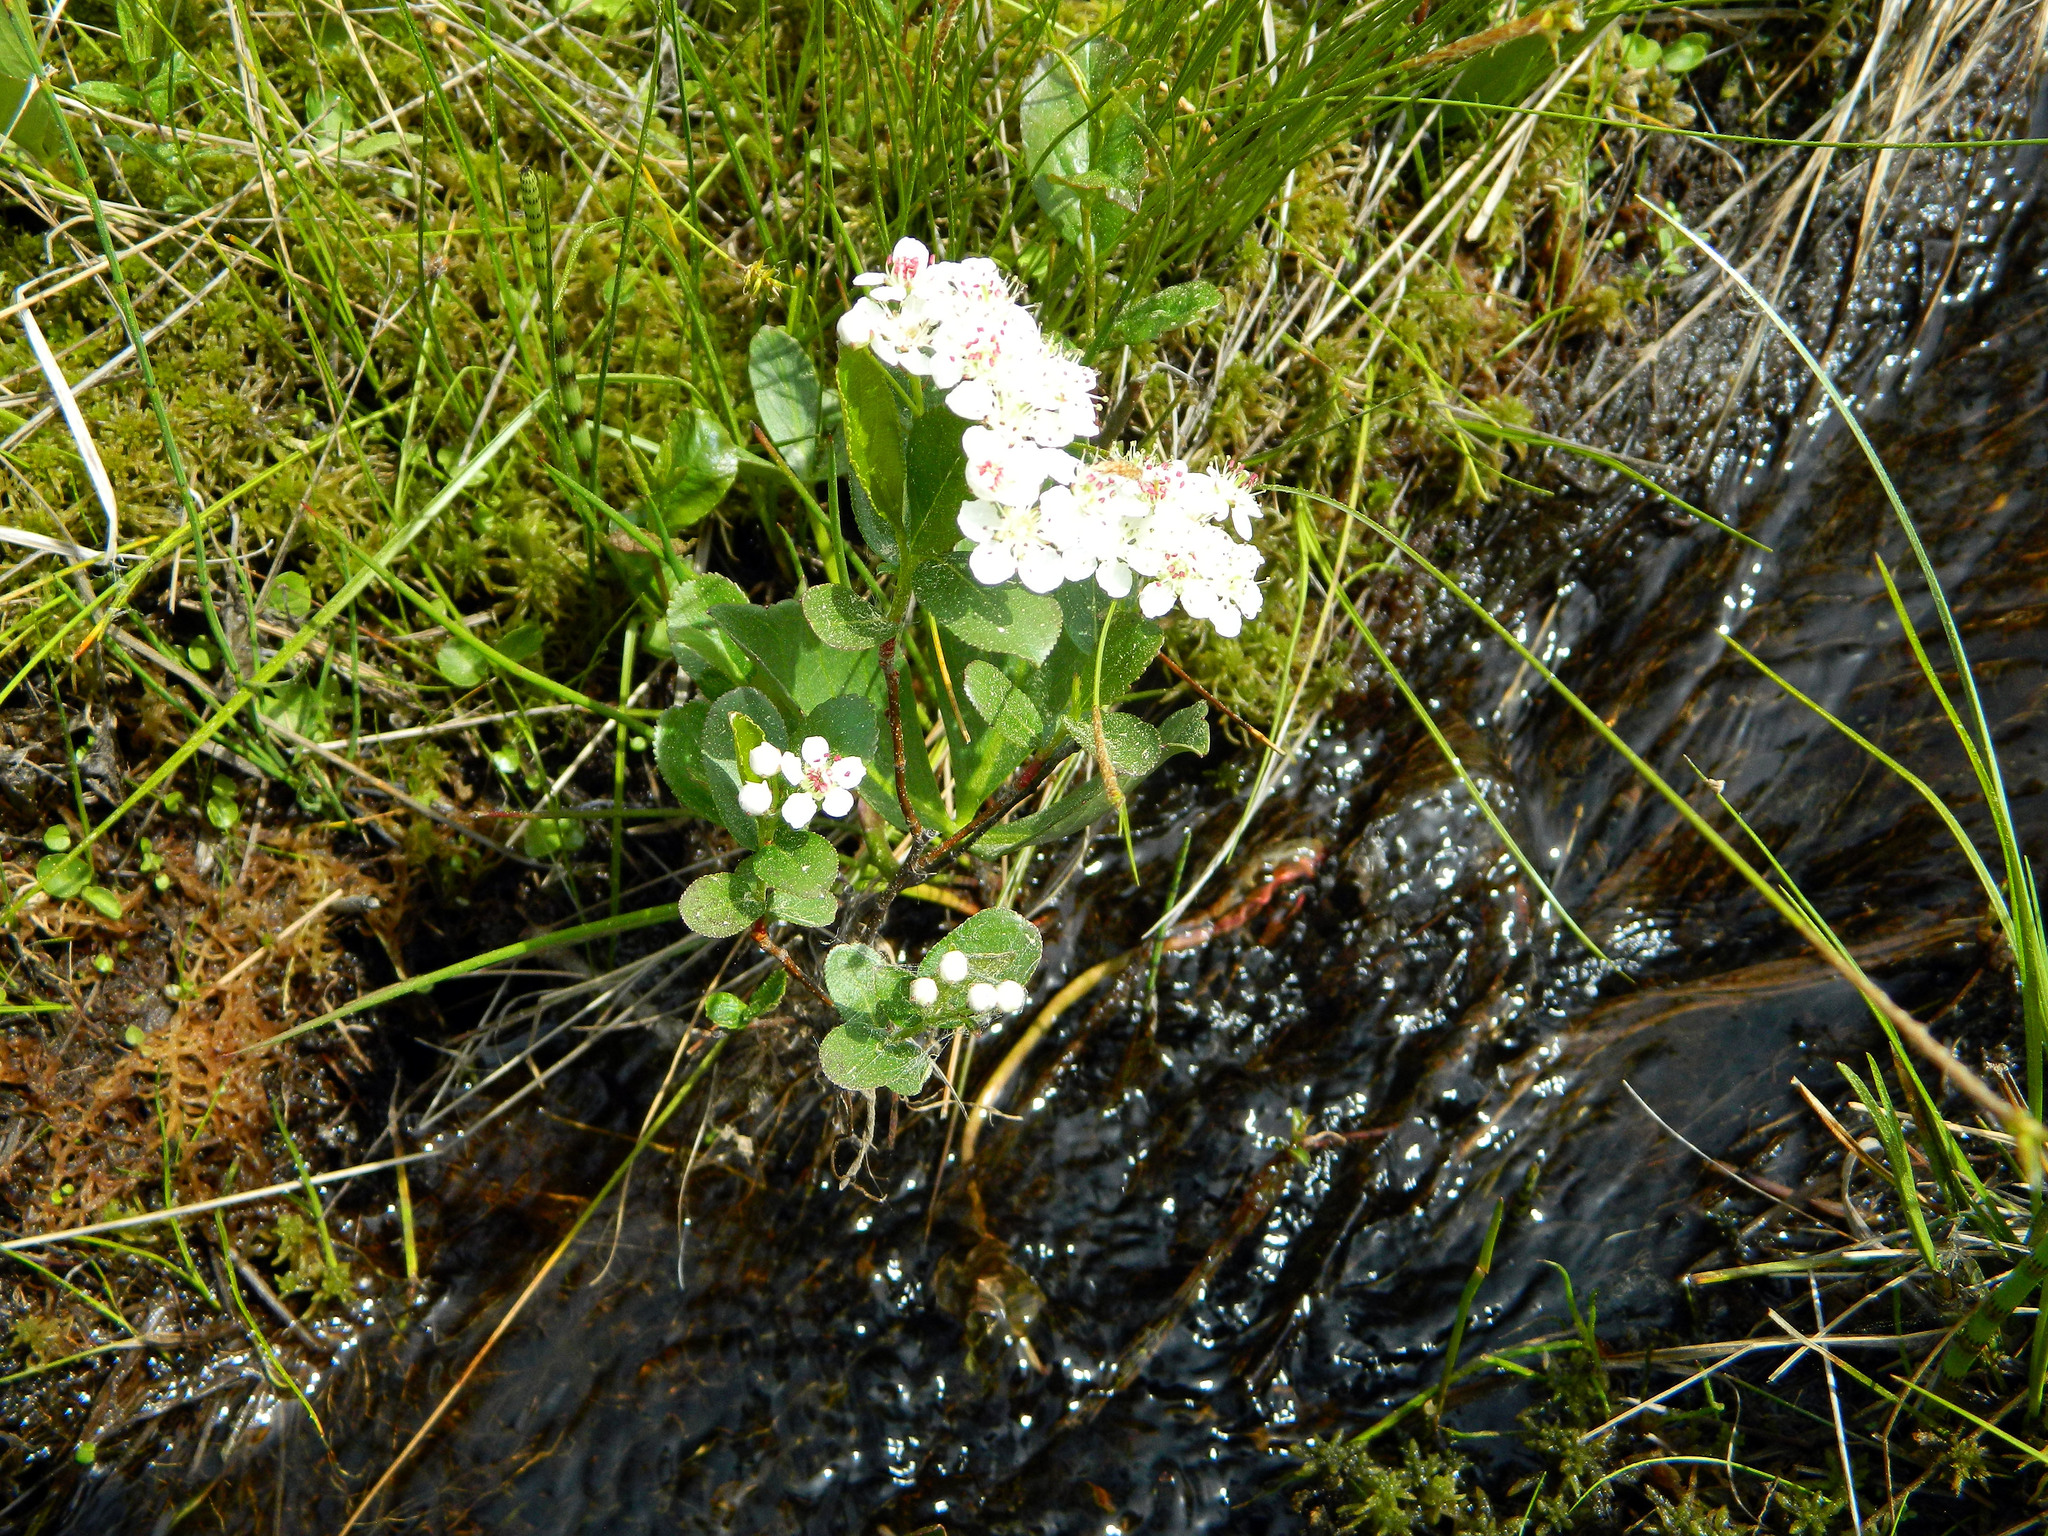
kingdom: Plantae
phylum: Tracheophyta
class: Magnoliopsida
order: Rosales
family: Rosaceae
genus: Aronia
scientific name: Aronia melanocarpa
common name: Black chokeberry
